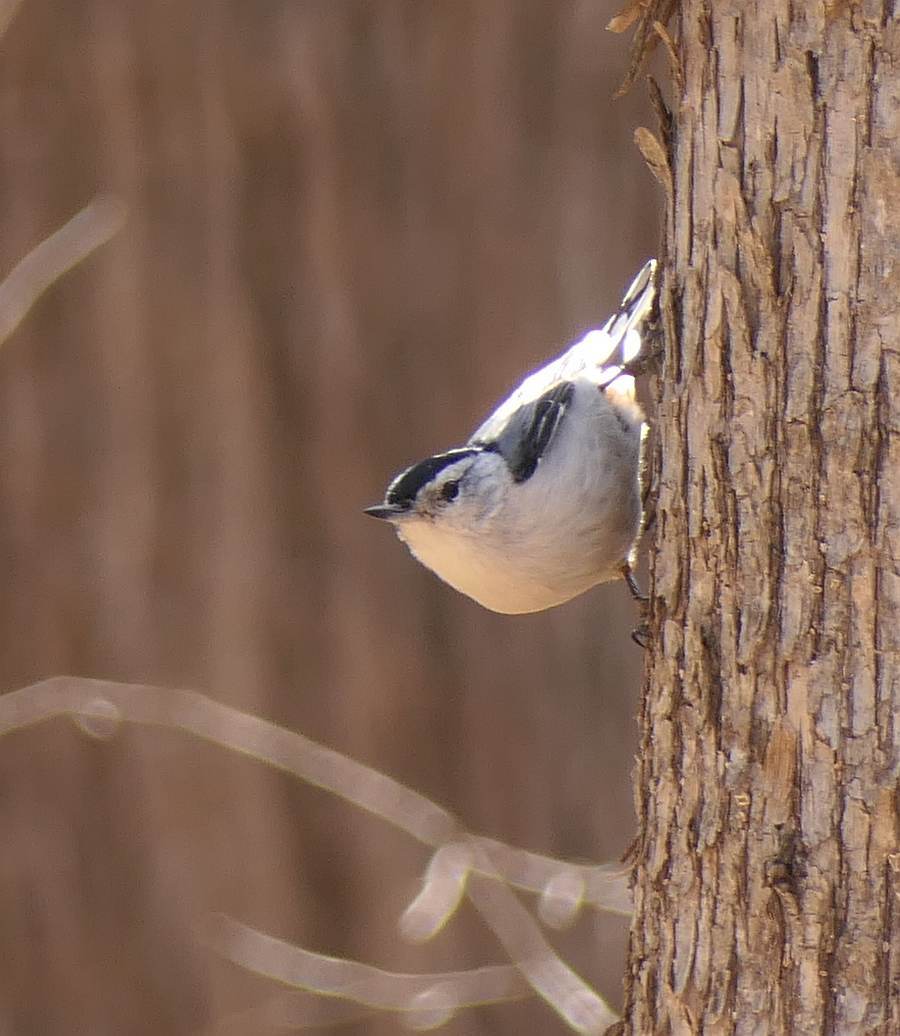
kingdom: Animalia
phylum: Chordata
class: Aves
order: Passeriformes
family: Sittidae
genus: Sitta
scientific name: Sitta carolinensis
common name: White-breasted nuthatch
